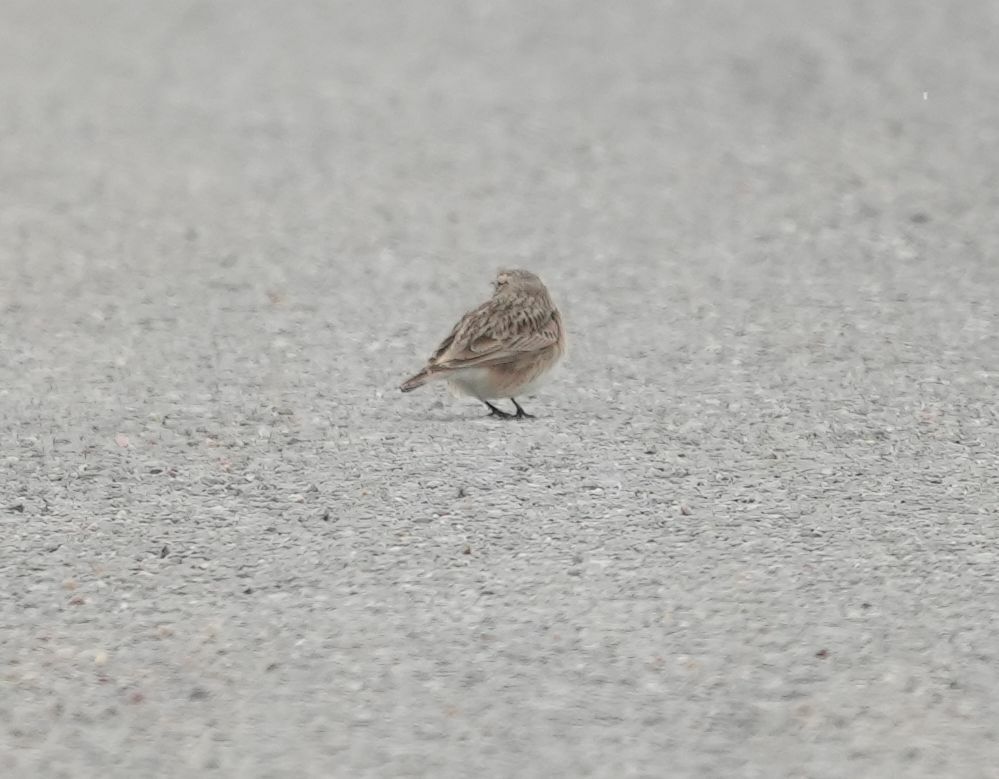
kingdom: Animalia
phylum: Chordata
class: Aves
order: Passeriformes
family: Alaudidae
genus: Eremophila
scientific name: Eremophila alpestris
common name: Horned lark
